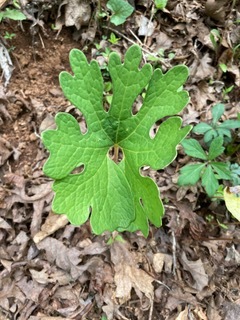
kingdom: Plantae
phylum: Tracheophyta
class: Magnoliopsida
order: Ranunculales
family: Papaveraceae
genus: Sanguinaria
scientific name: Sanguinaria canadensis
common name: Bloodroot
